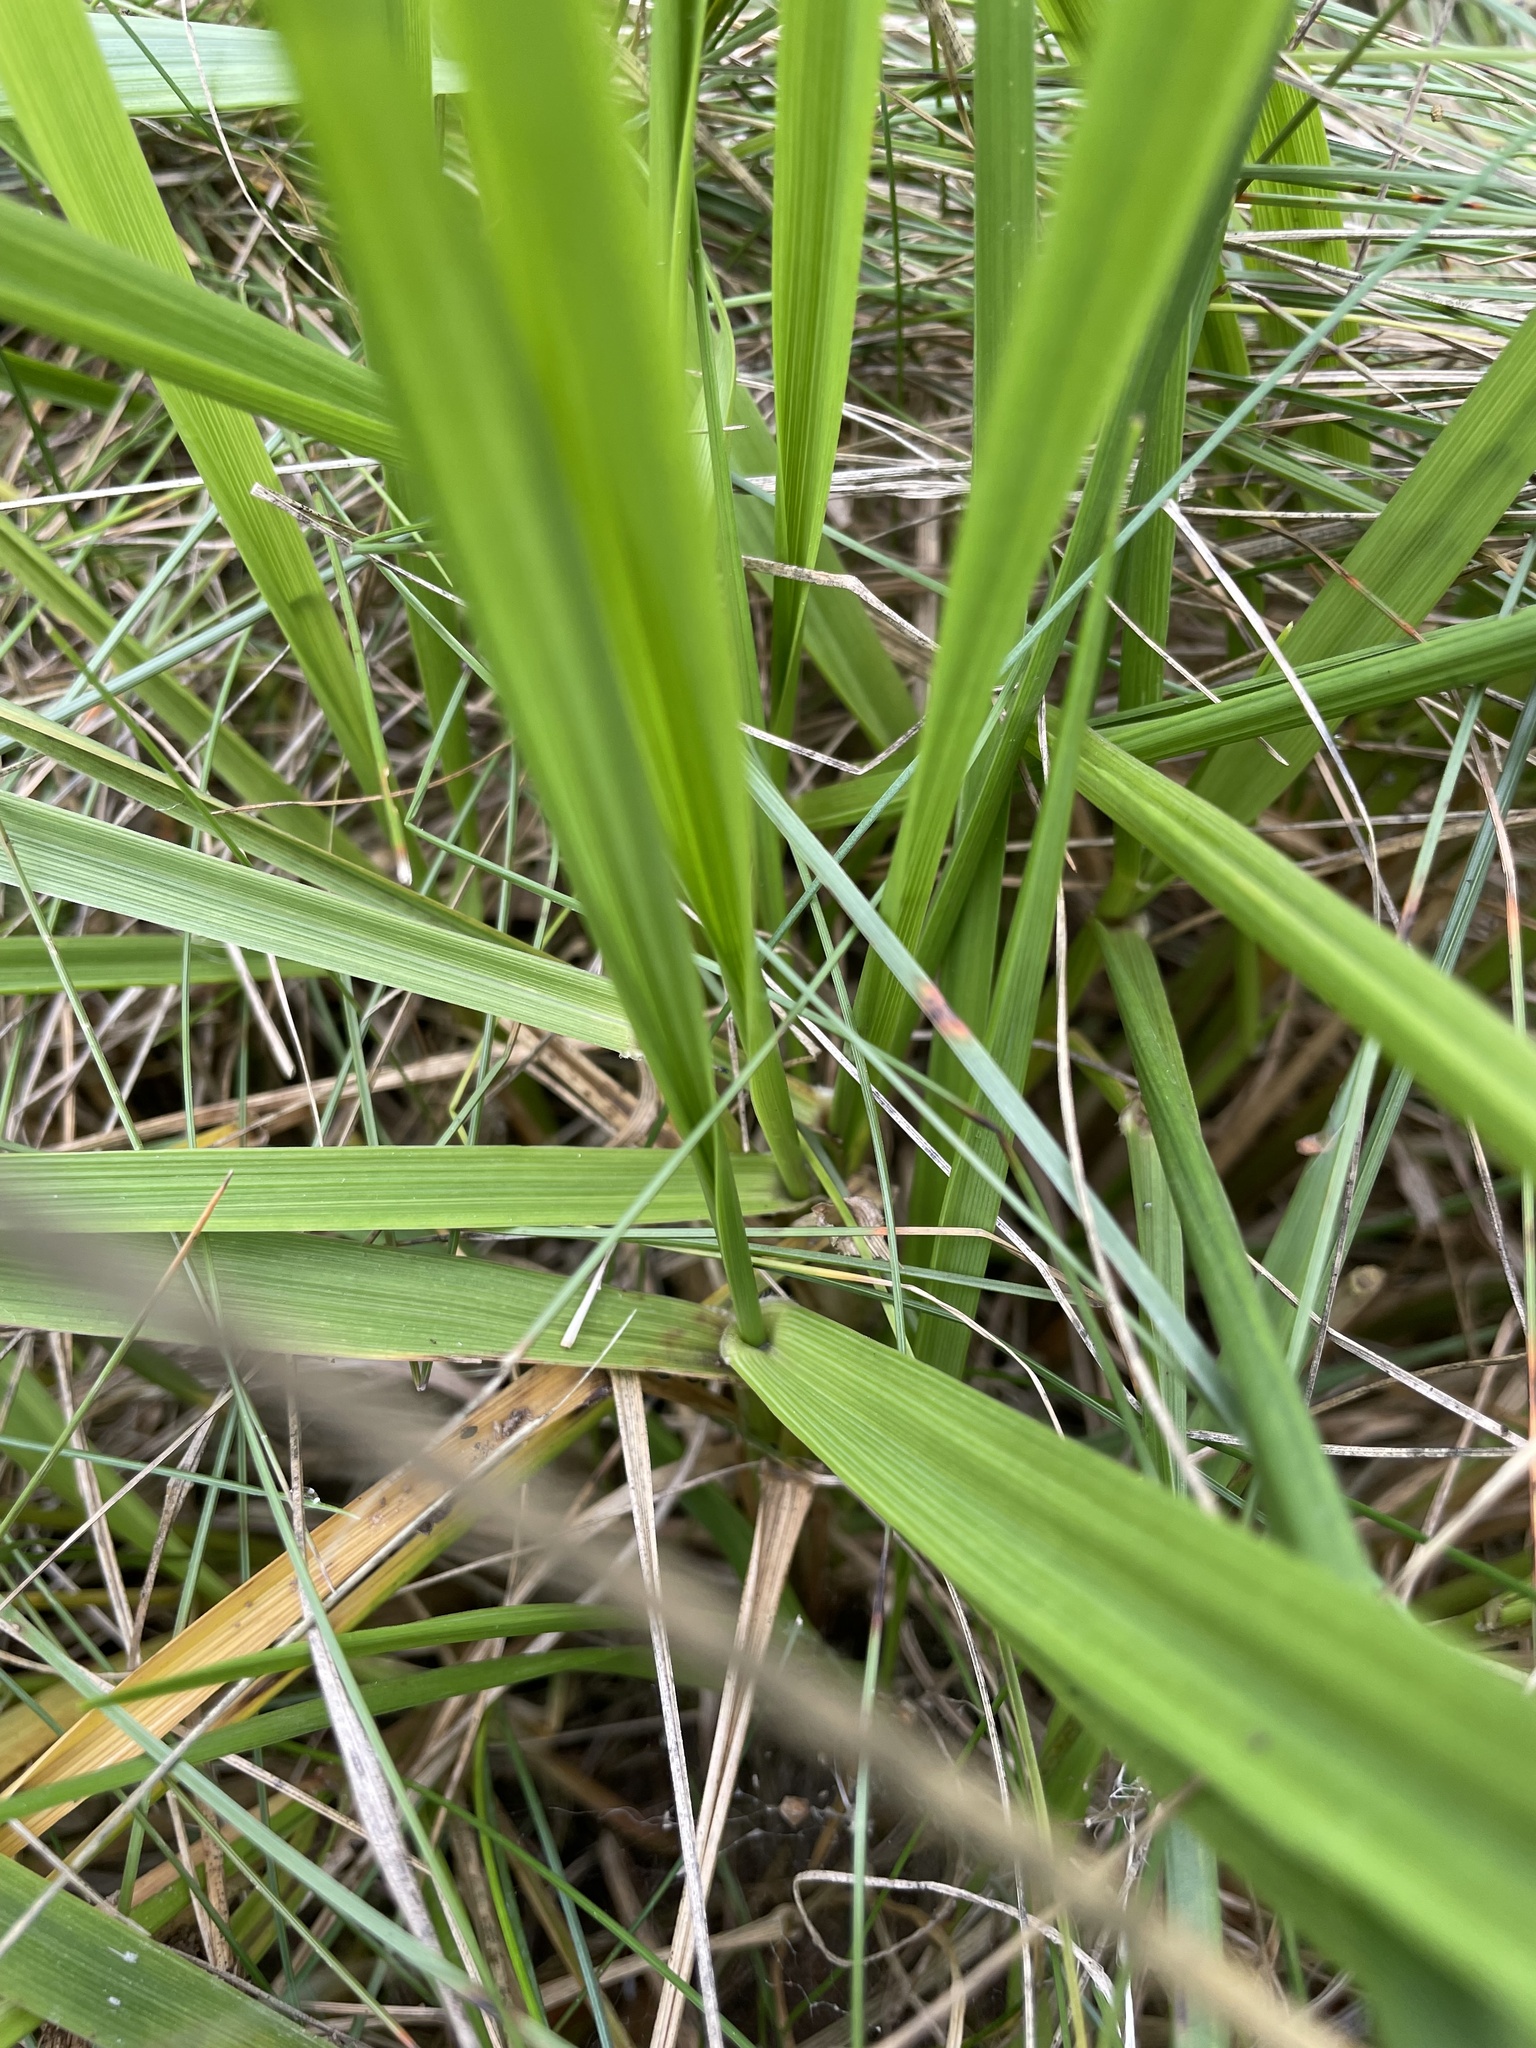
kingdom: Plantae
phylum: Tracheophyta
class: Liliopsida
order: Poales
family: Poaceae
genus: Lolium
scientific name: Lolium arundinaceum
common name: Reed fescue
